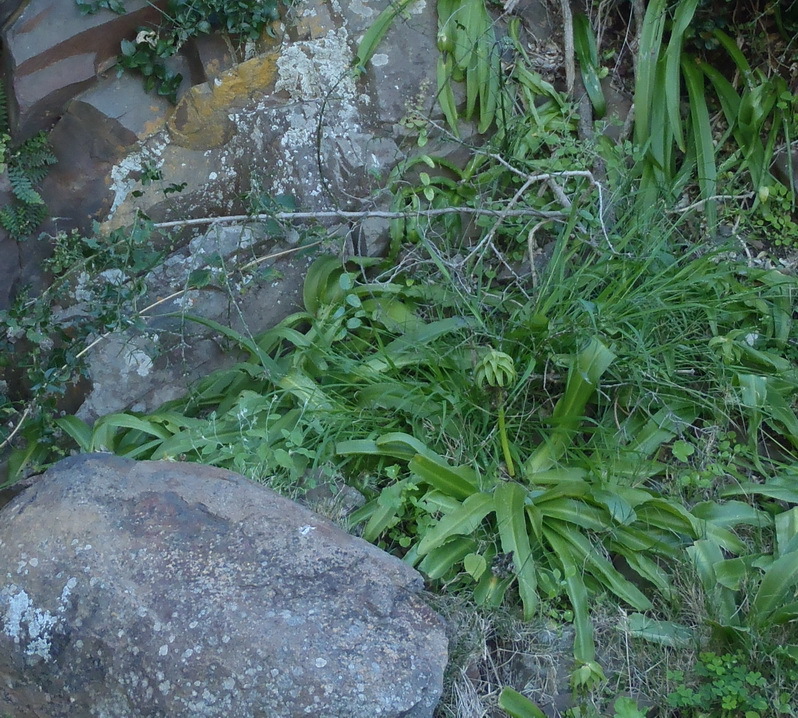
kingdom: Plantae
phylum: Tracheophyta
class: Liliopsida
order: Asparagales
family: Asparagaceae
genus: Eucomis
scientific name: Eucomis autumnalis
